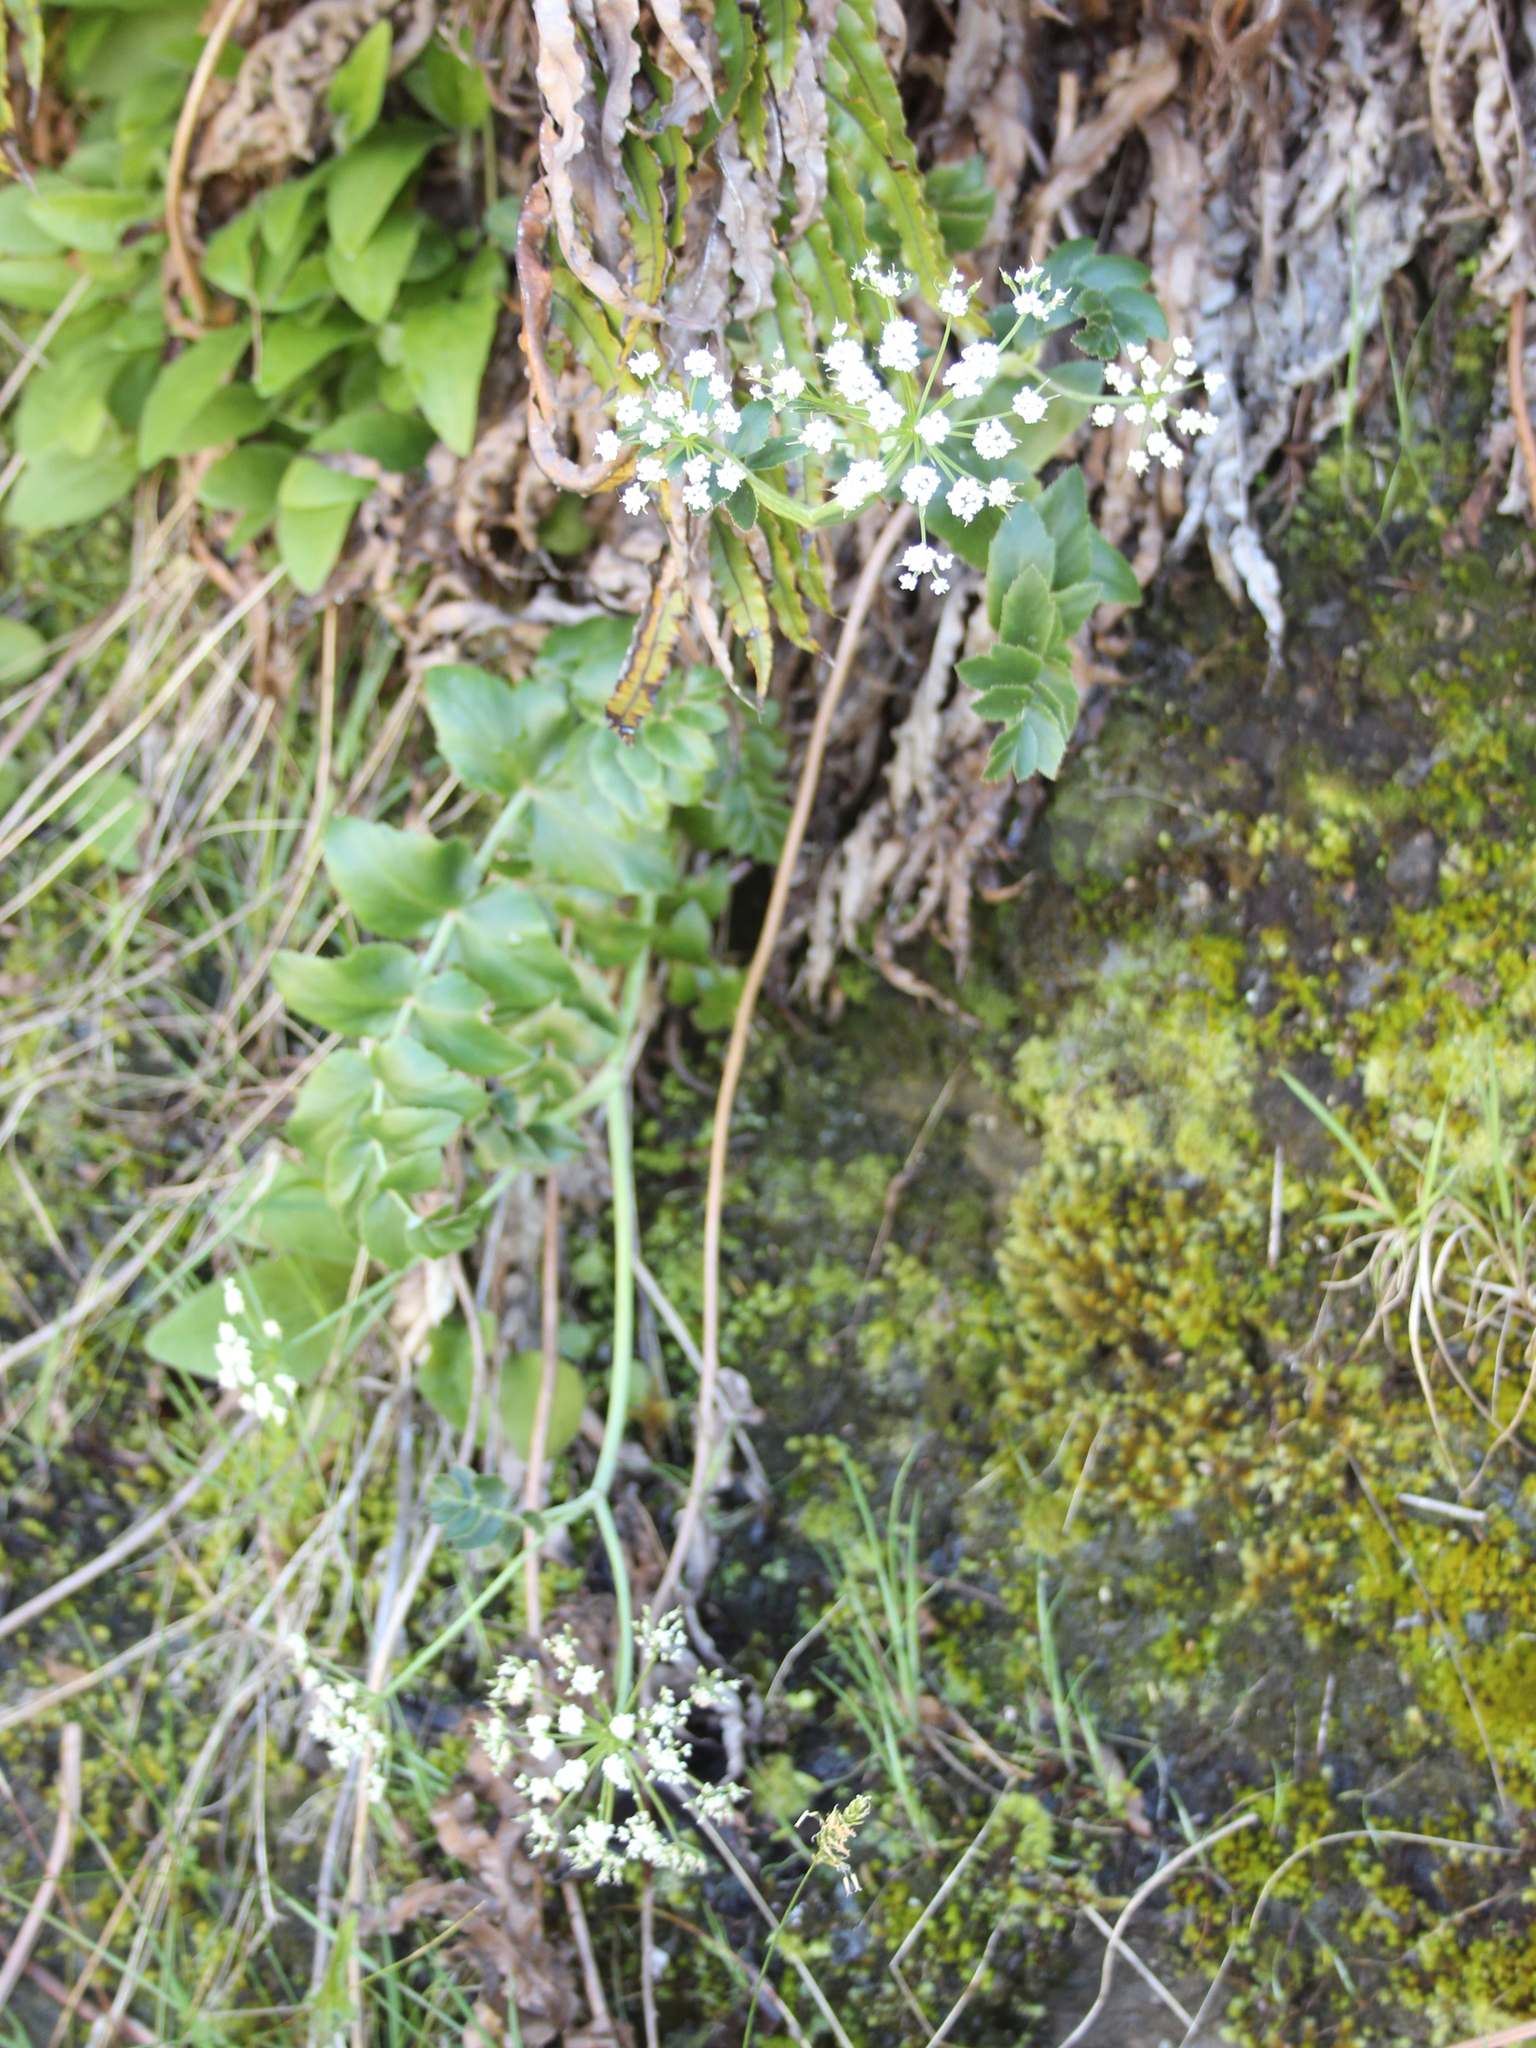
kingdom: Plantae
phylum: Tracheophyta
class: Magnoliopsida
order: Apiales
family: Apiaceae
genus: Gingidia
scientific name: Gingidia montana
